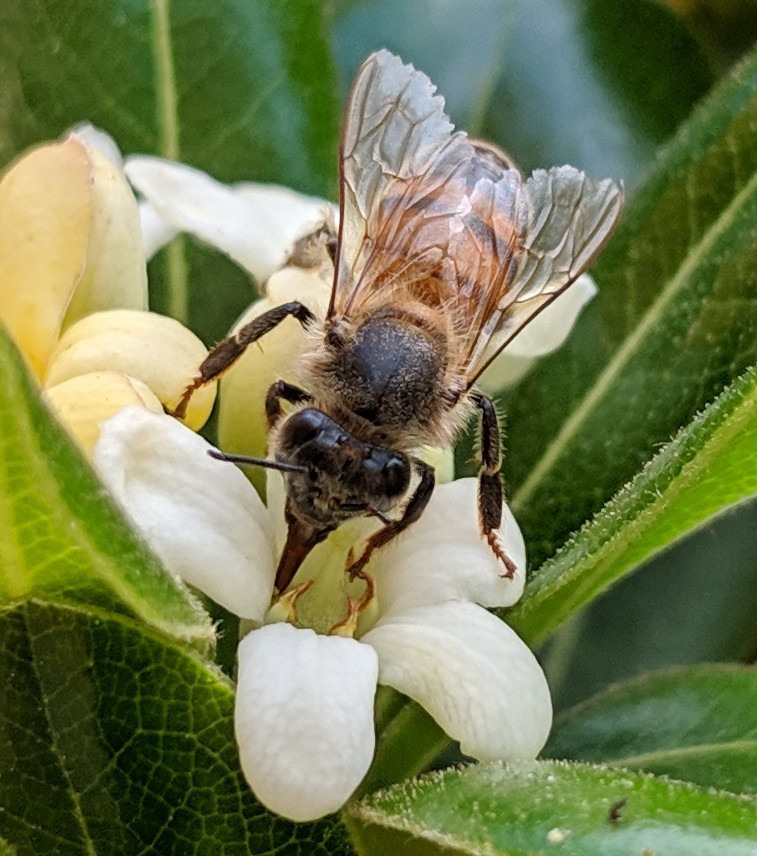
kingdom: Animalia
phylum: Arthropoda
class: Insecta
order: Hymenoptera
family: Apidae
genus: Apis
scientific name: Apis mellifera
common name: Honey bee
